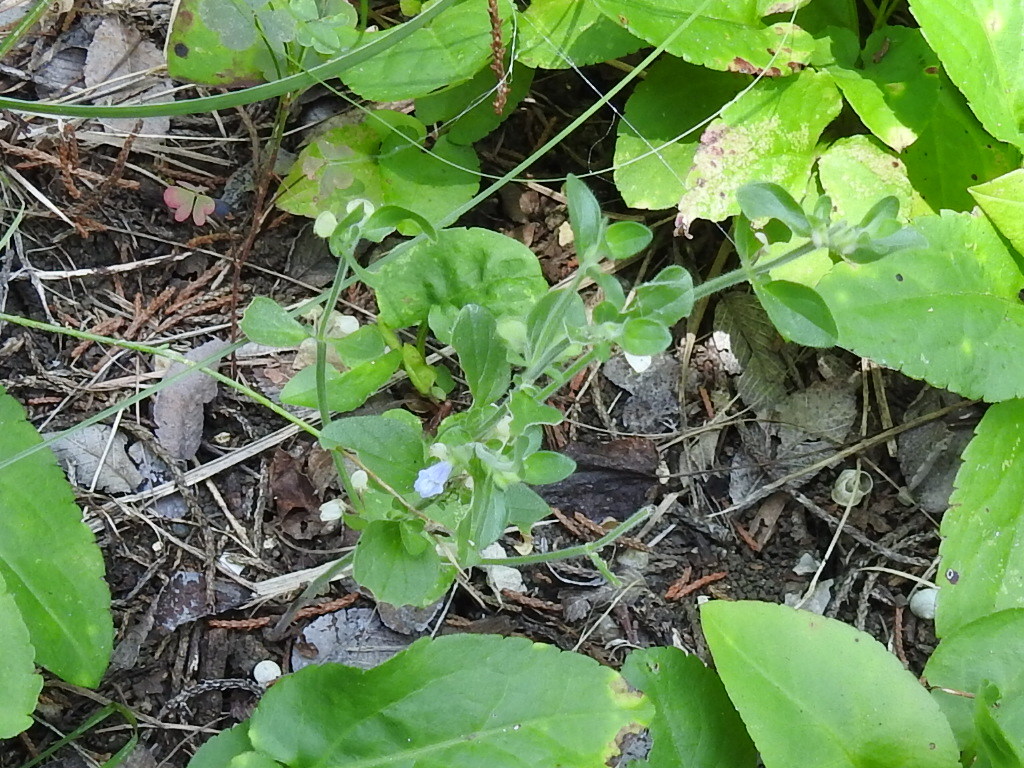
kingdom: Plantae
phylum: Tracheophyta
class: Magnoliopsida
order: Lamiales
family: Lamiaceae
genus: Scutellaria
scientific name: Scutellaria drummondii
